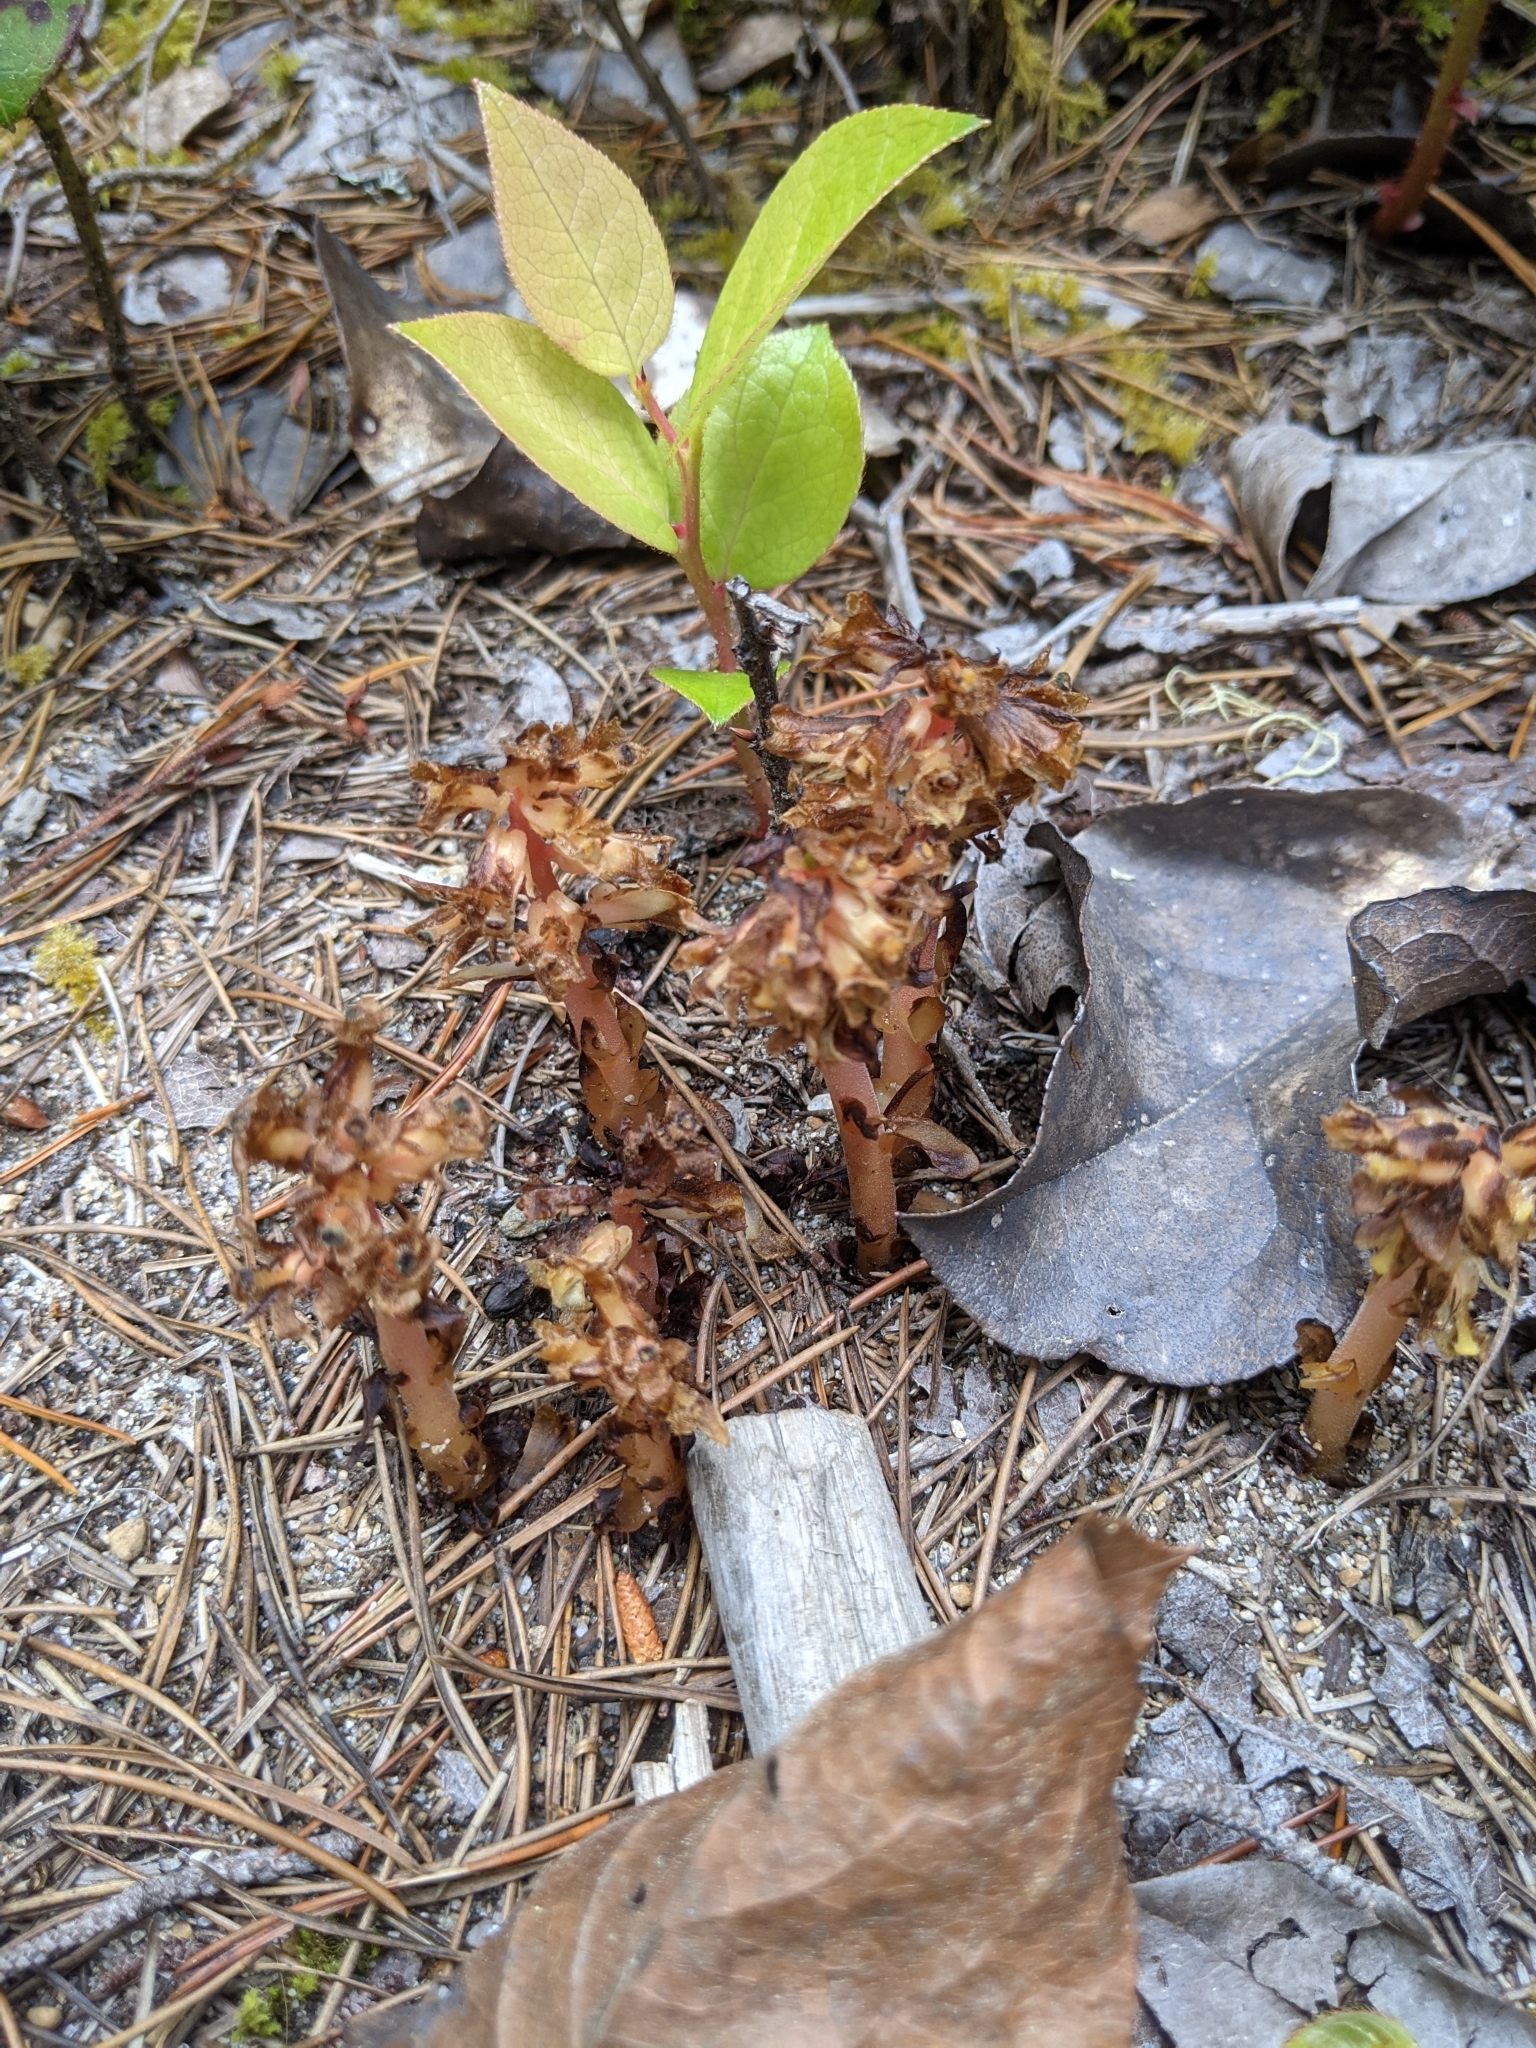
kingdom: Plantae
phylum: Tracheophyta
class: Magnoliopsida
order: Ericales
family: Ericaceae
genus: Hypopitys
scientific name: Hypopitys monotropa
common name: Yellow bird's-nest
